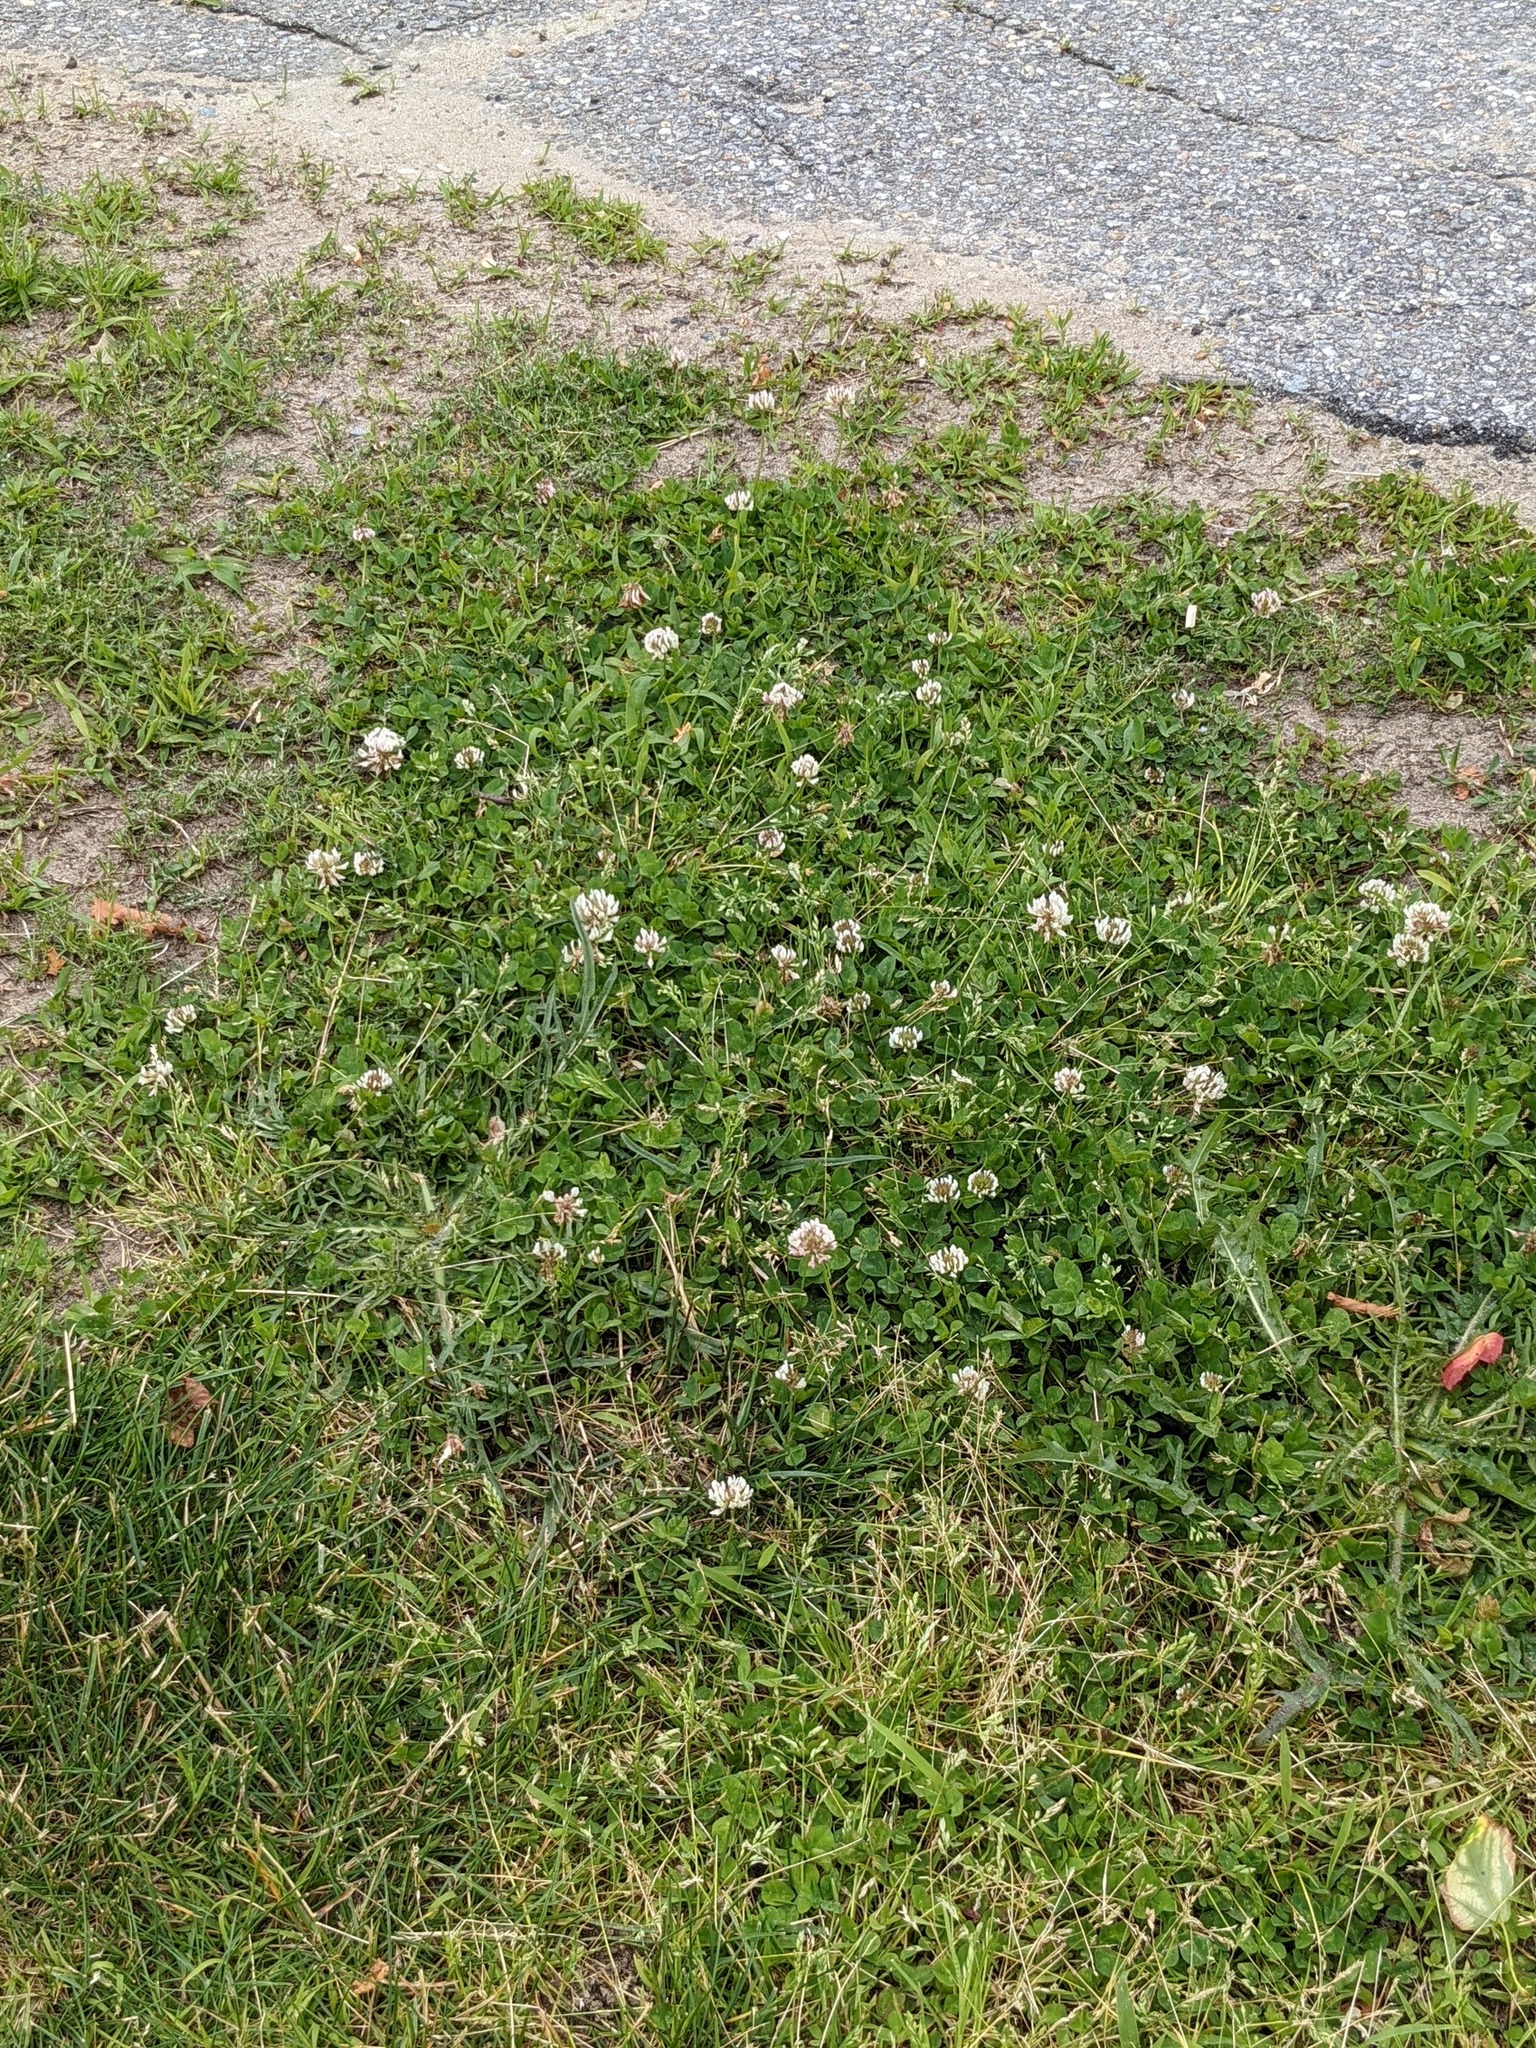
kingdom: Plantae
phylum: Tracheophyta
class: Magnoliopsida
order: Fabales
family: Fabaceae
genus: Trifolium
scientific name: Trifolium repens
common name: White clover
